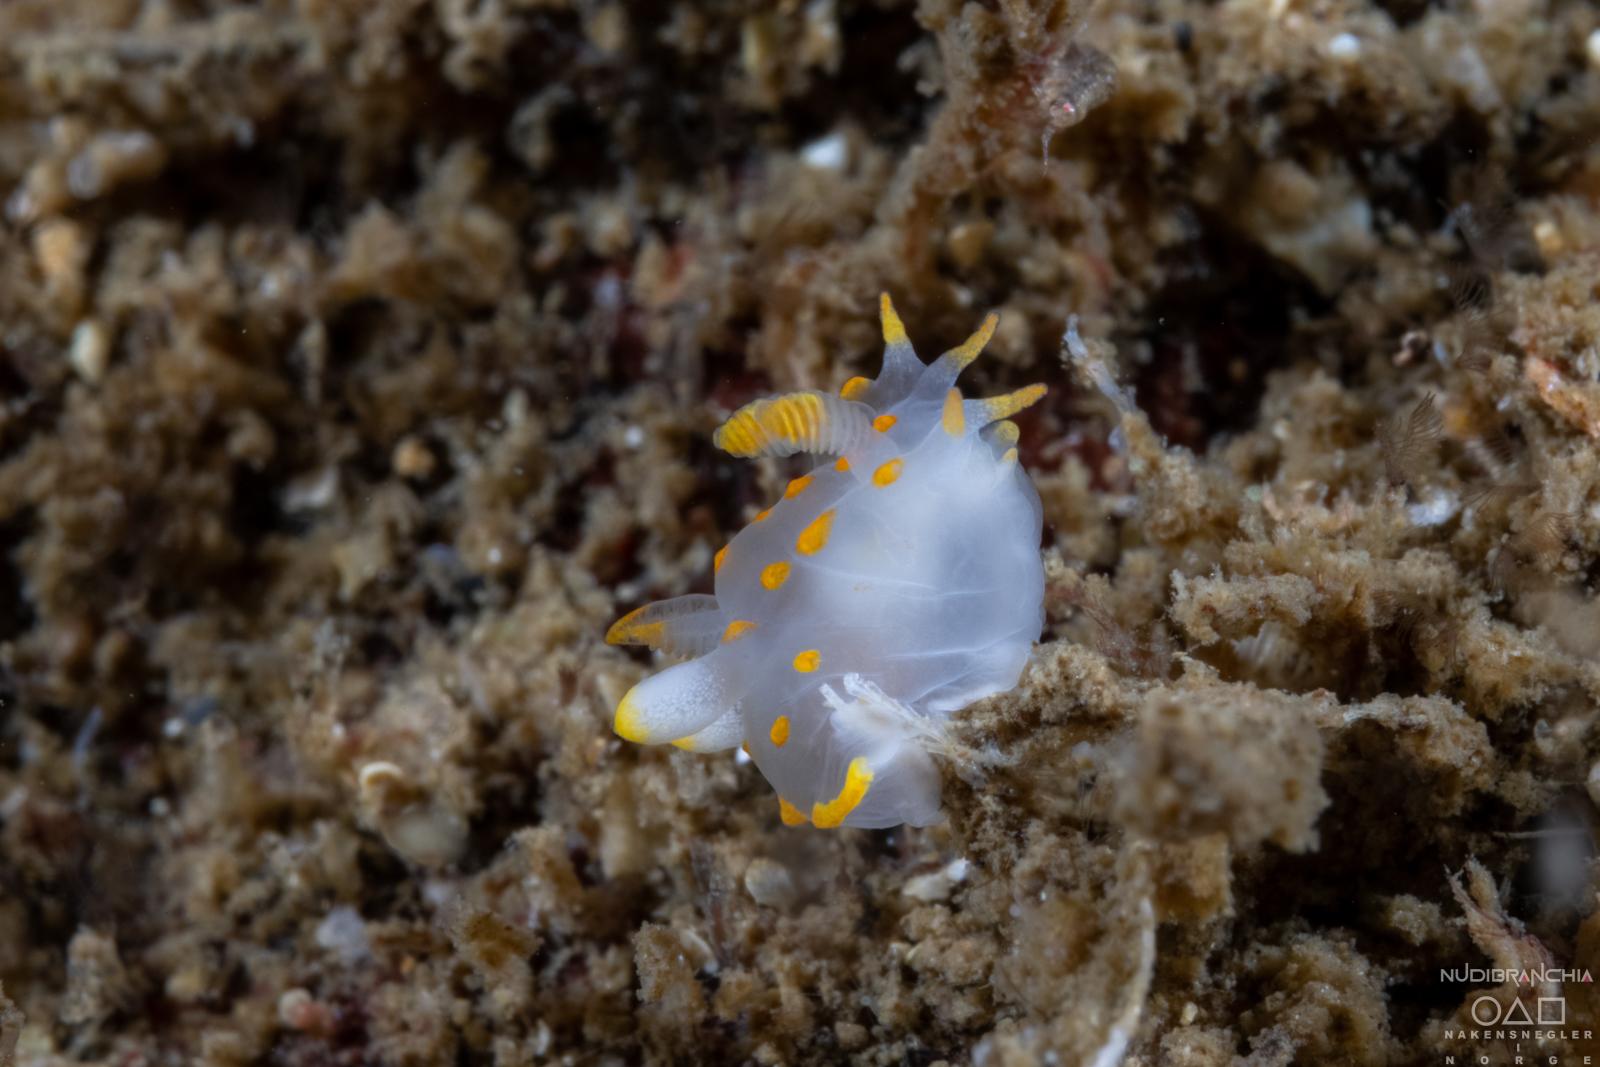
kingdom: Animalia
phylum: Mollusca
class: Gastropoda
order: Nudibranchia
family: Polyceridae
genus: Polycera
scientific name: Polycera quadrilineata
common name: Four-striped polycera
